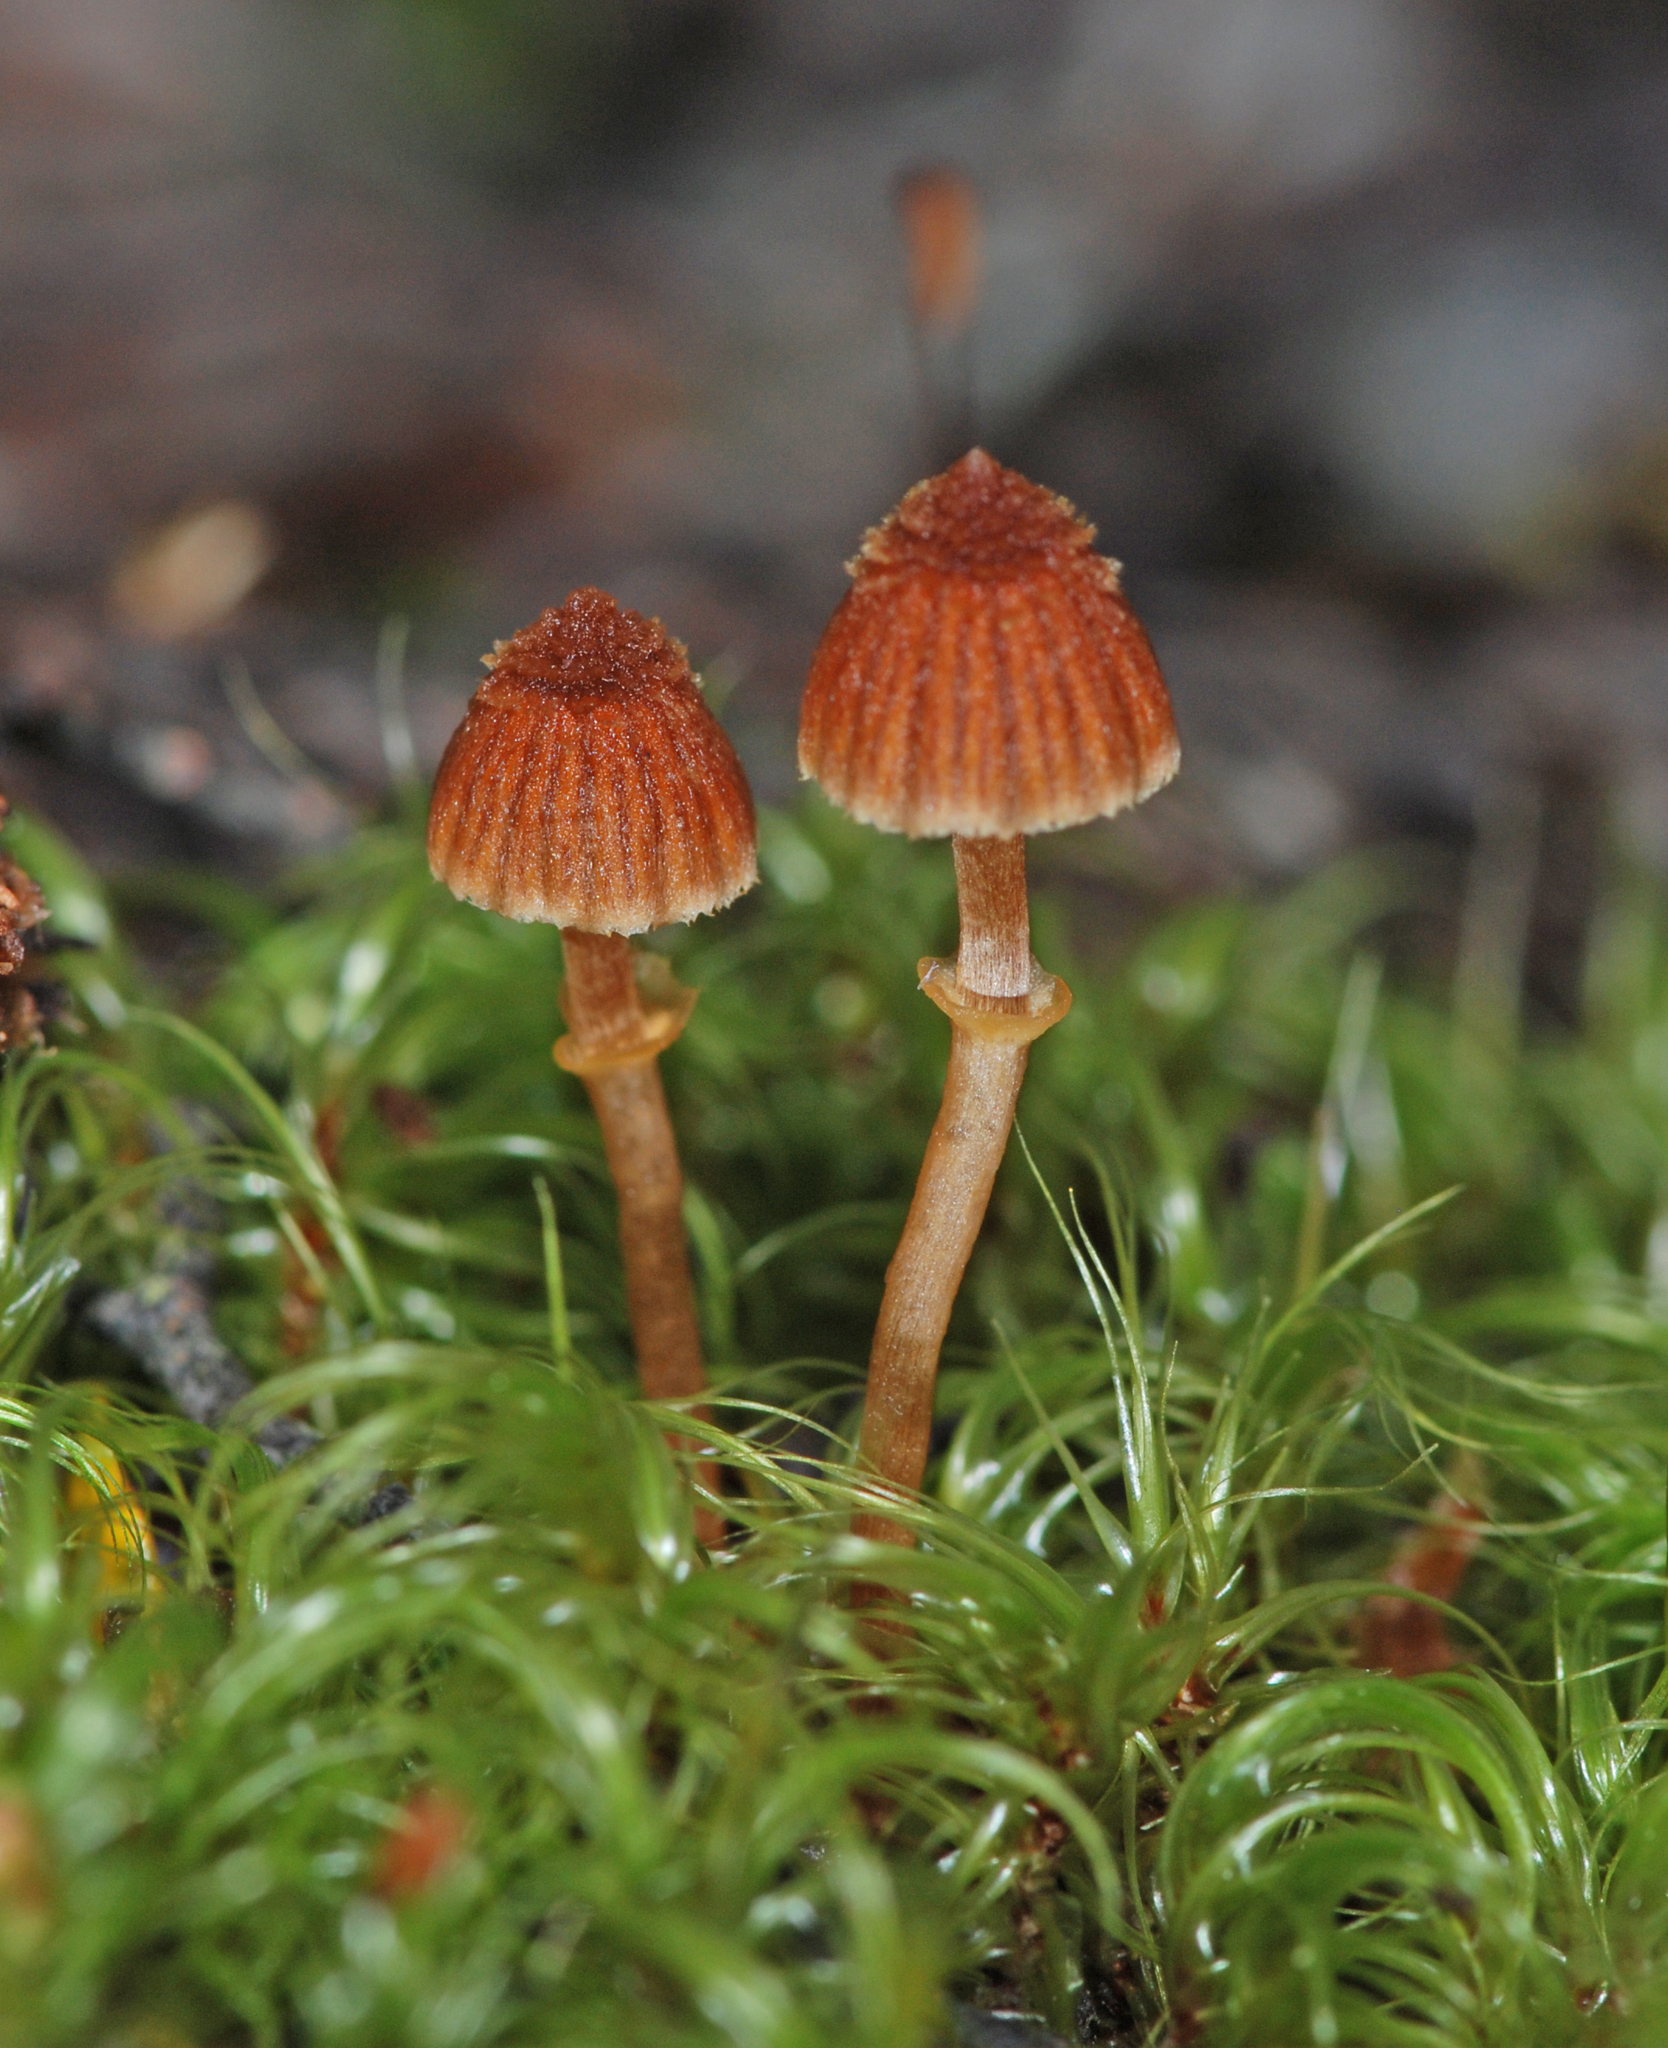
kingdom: Fungi
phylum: Basidiomycota
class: Agaricomycetes
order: Agaricales
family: Cortinariaceae
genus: Cortinarius
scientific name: Cortinarius lanceolatus
